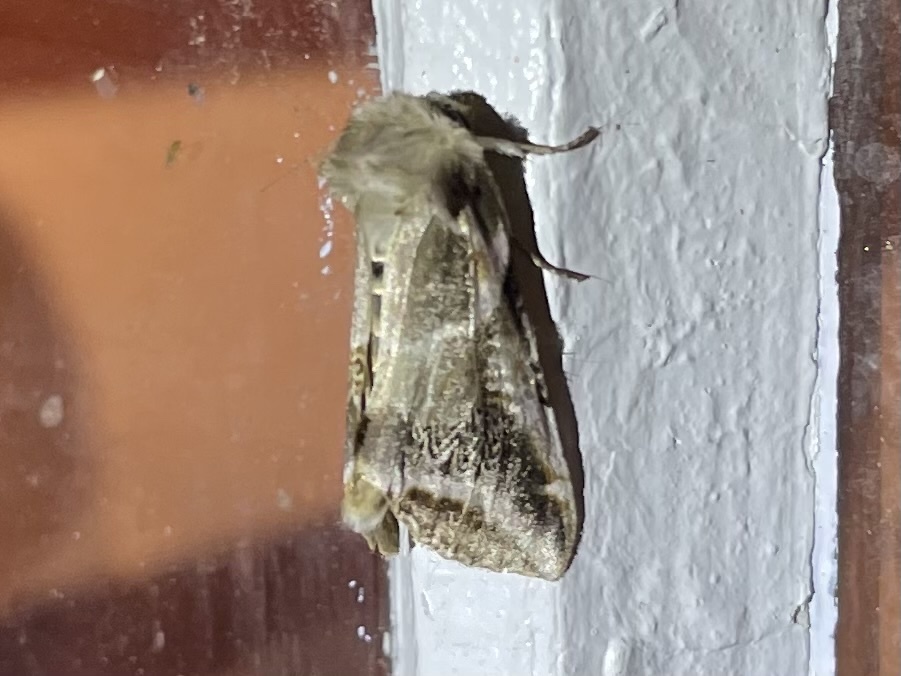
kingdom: Animalia
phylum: Arthropoda
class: Insecta
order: Lepidoptera
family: Drepanidae
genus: Habrosyne
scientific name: Habrosyne scripta
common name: Lettered habrosyne moth
